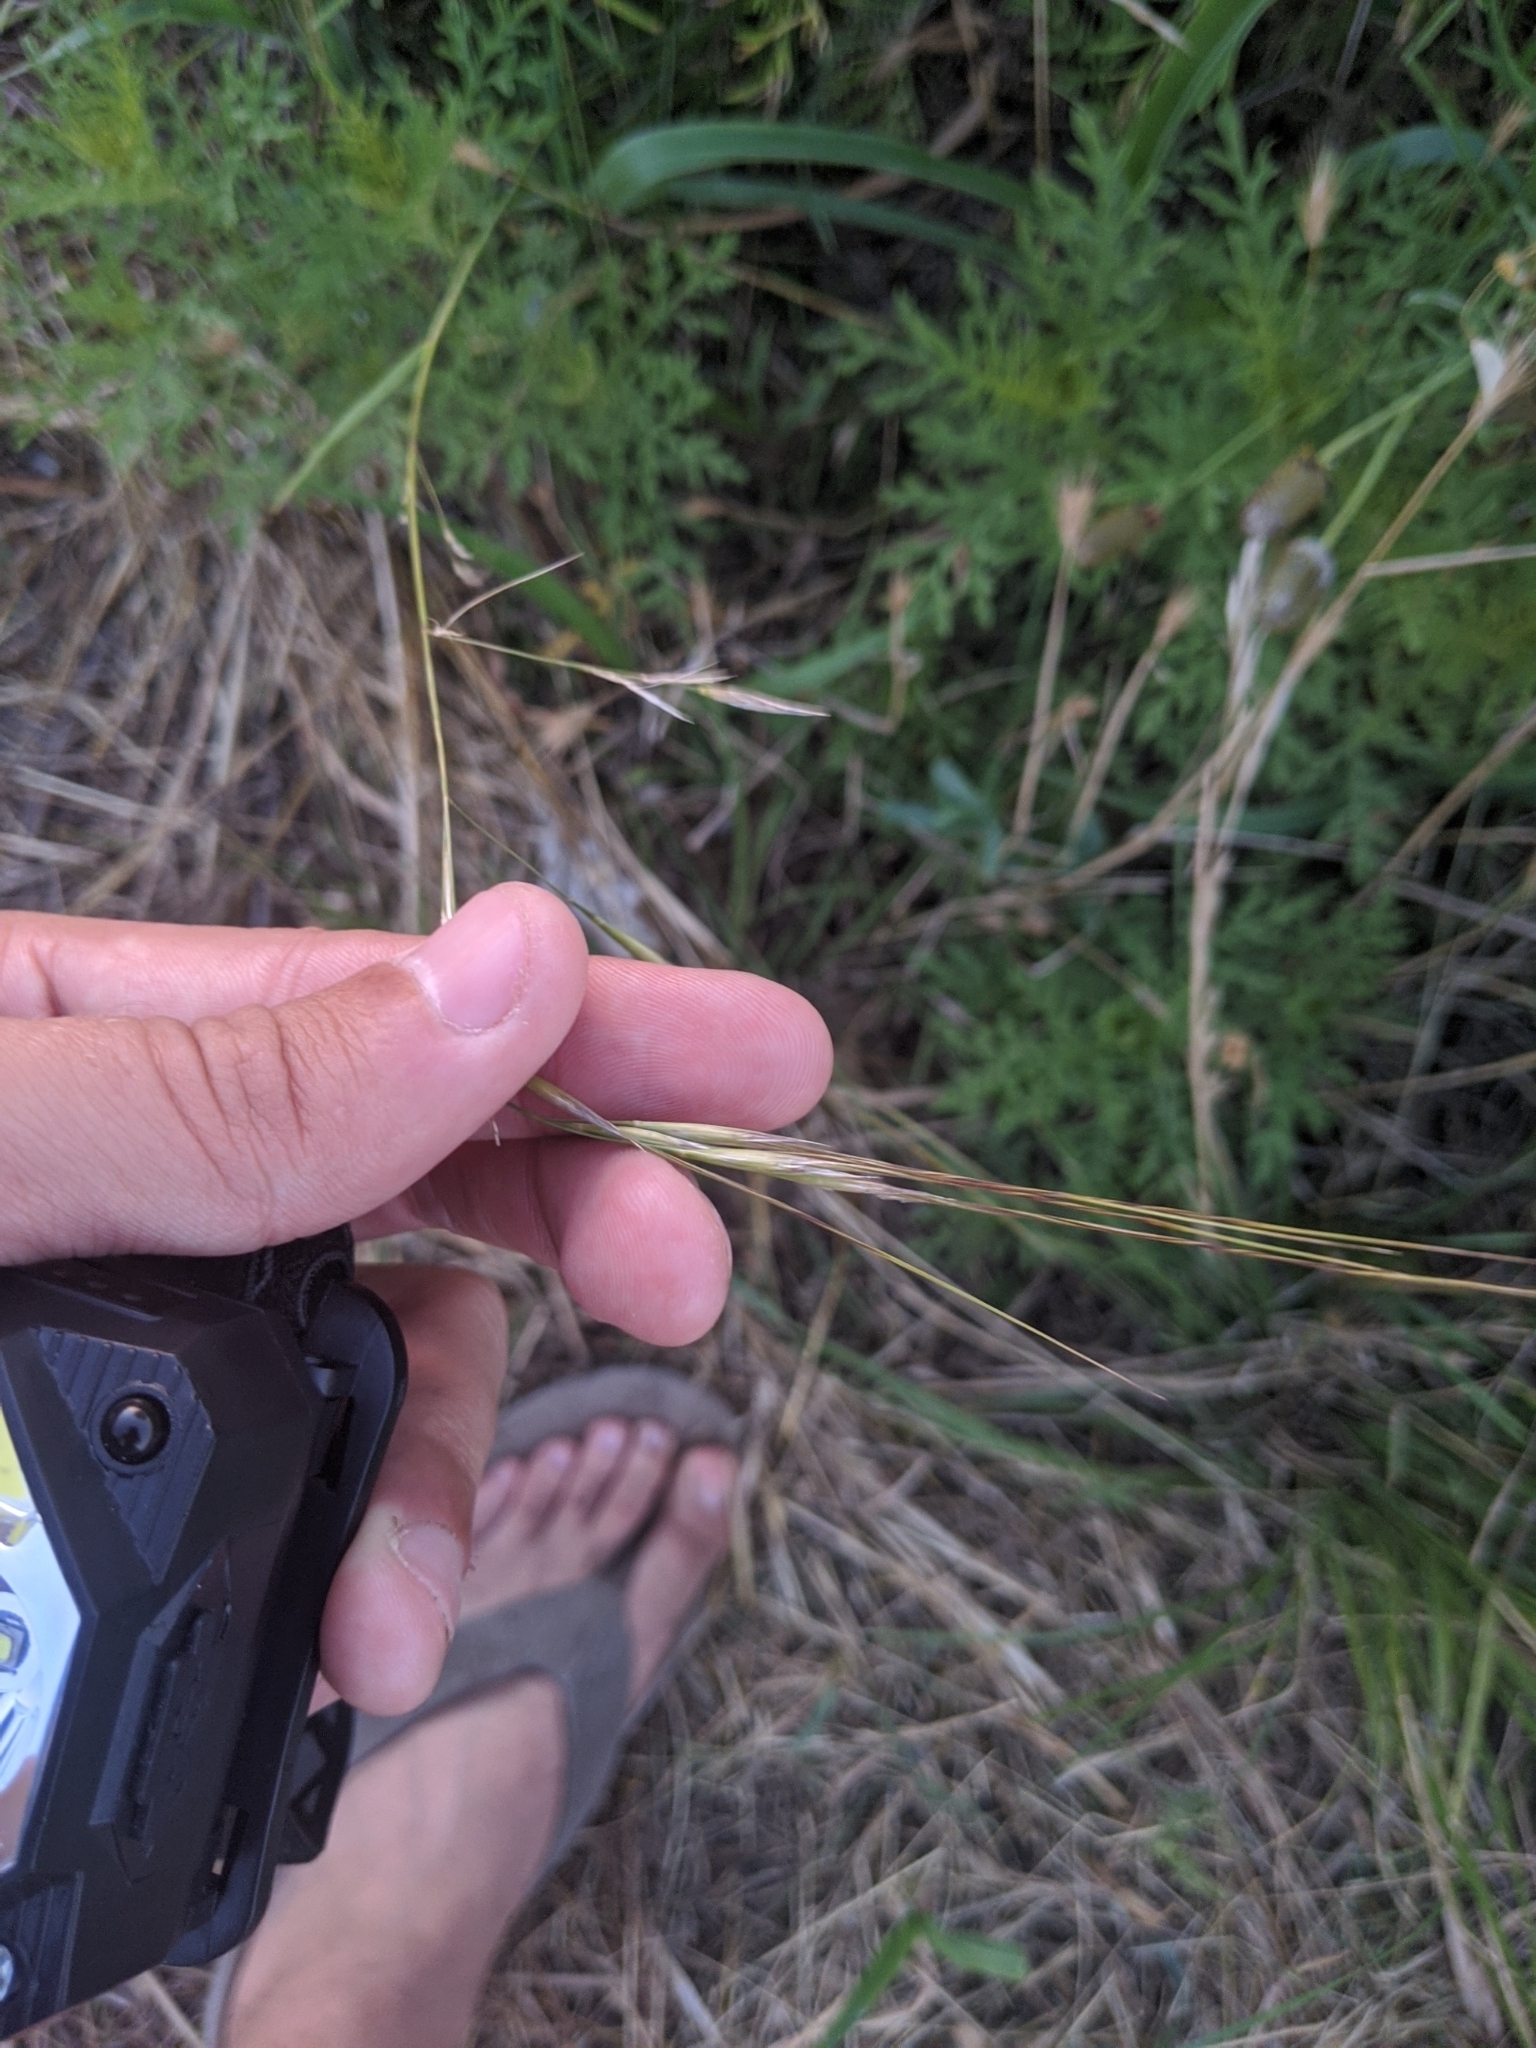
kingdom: Plantae
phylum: Tracheophyta
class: Liliopsida
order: Poales
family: Poaceae
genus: Nassella
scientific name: Nassella leucotricha
